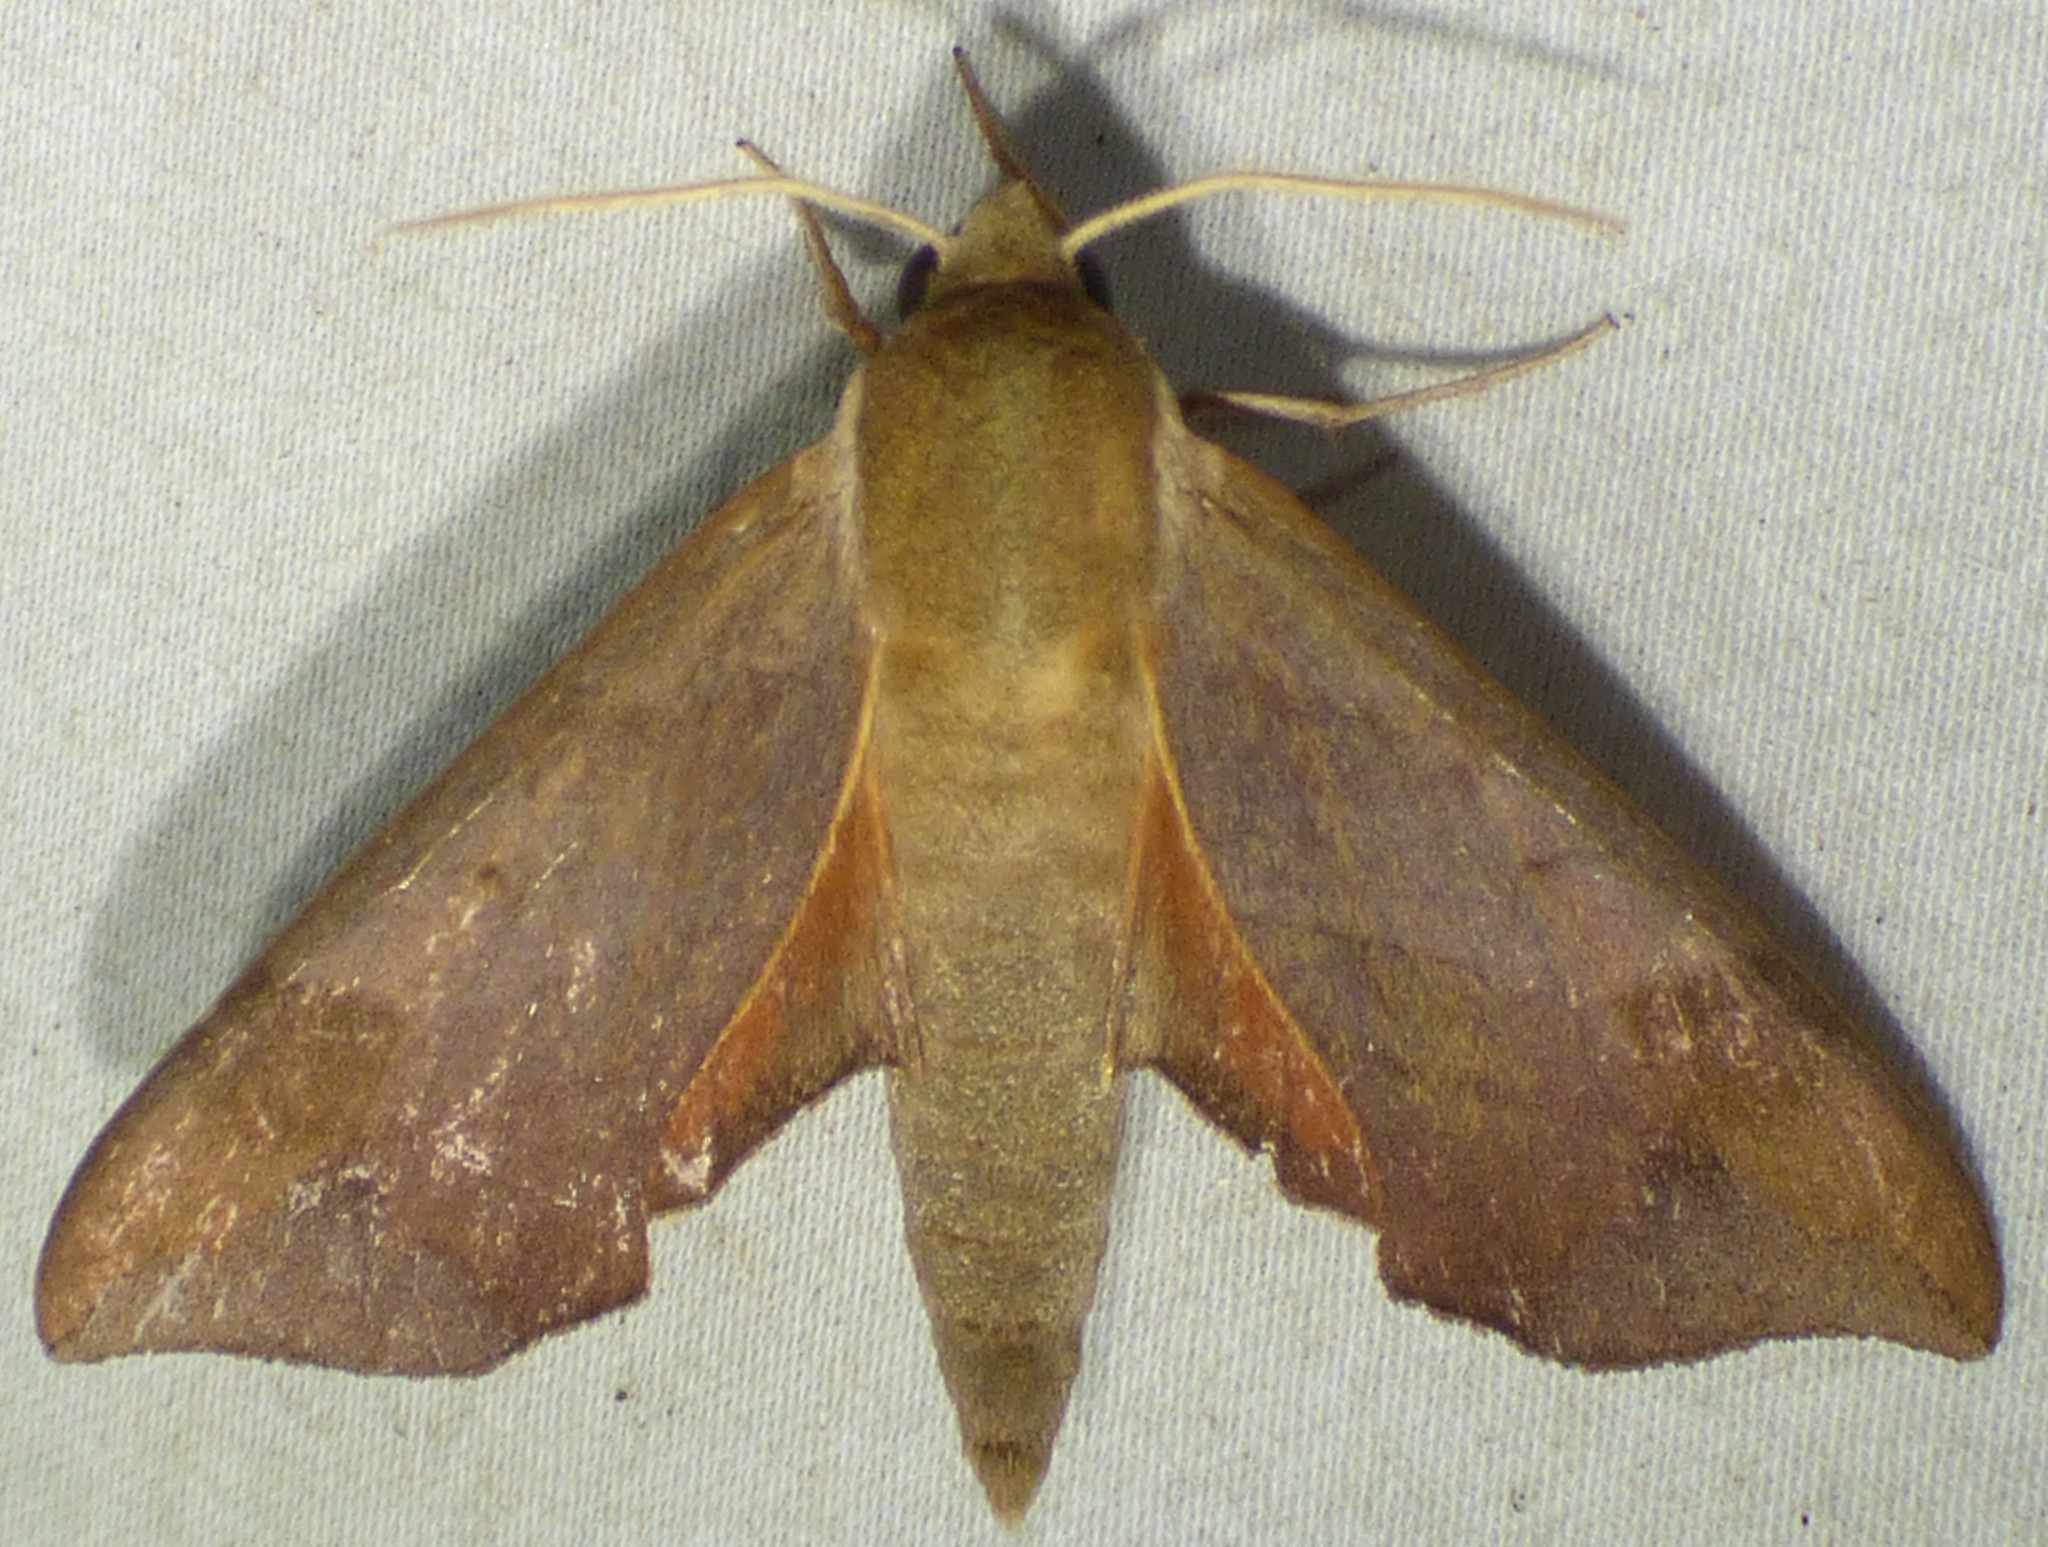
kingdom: Animalia
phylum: Arthropoda
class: Insecta
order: Lepidoptera
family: Sphingidae
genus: Darapsa
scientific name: Darapsa myron
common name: Hog sphinx
